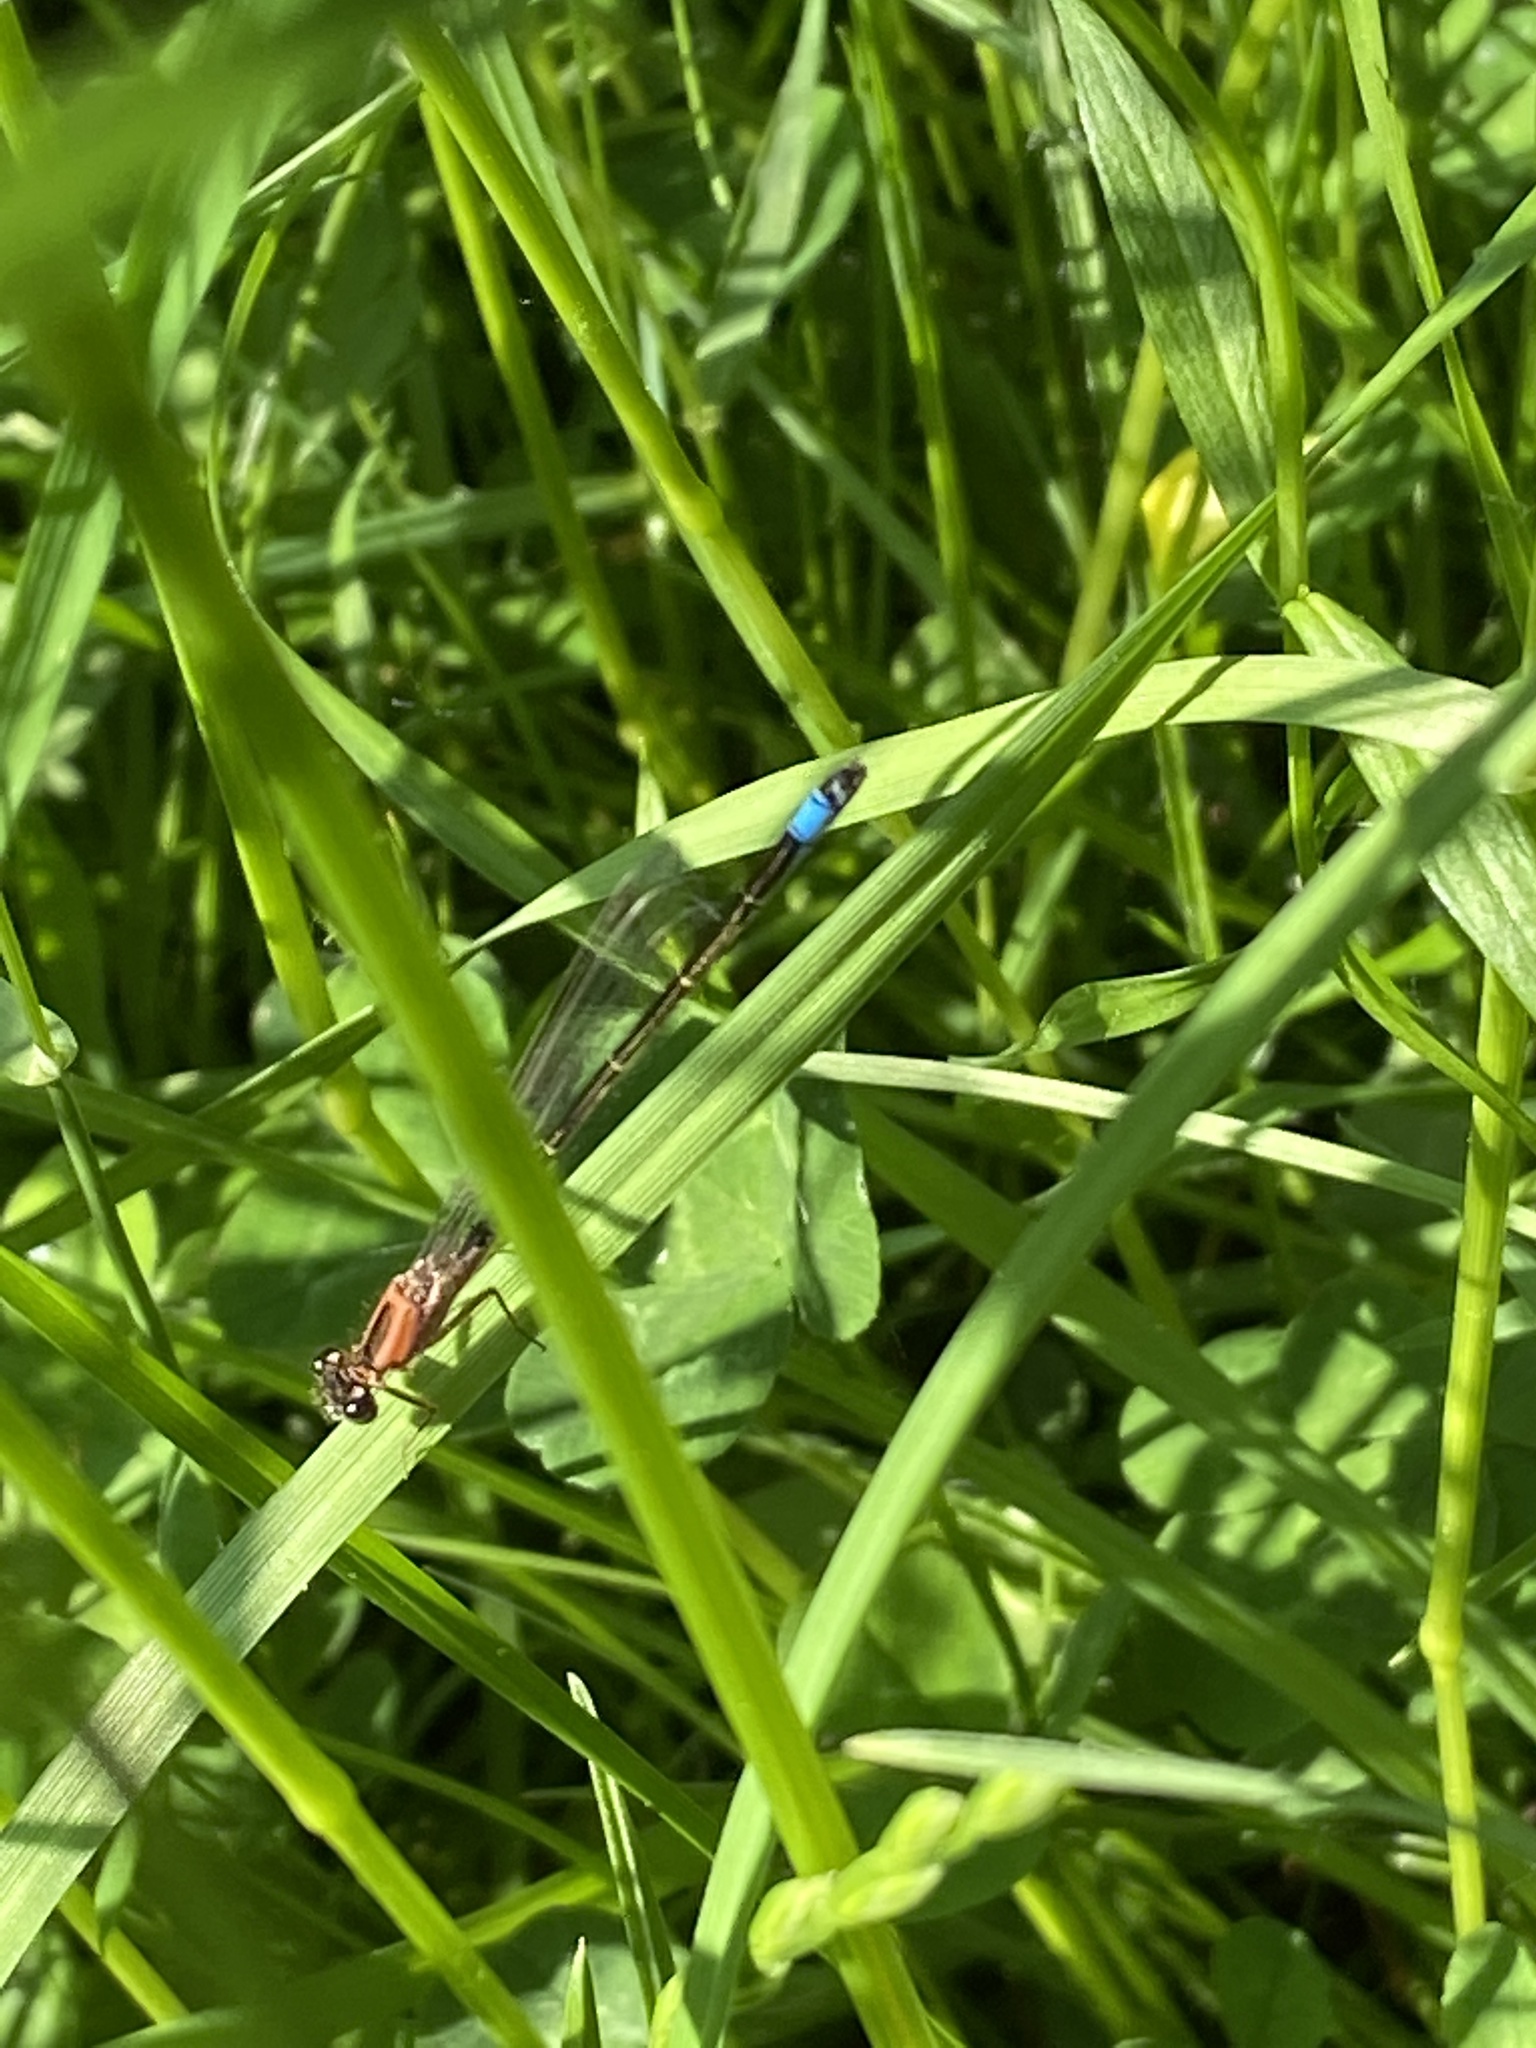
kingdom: Animalia
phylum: Arthropoda
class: Insecta
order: Odonata
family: Coenagrionidae
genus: Ischnura
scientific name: Ischnura elegans
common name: Blue-tailed damselfly
